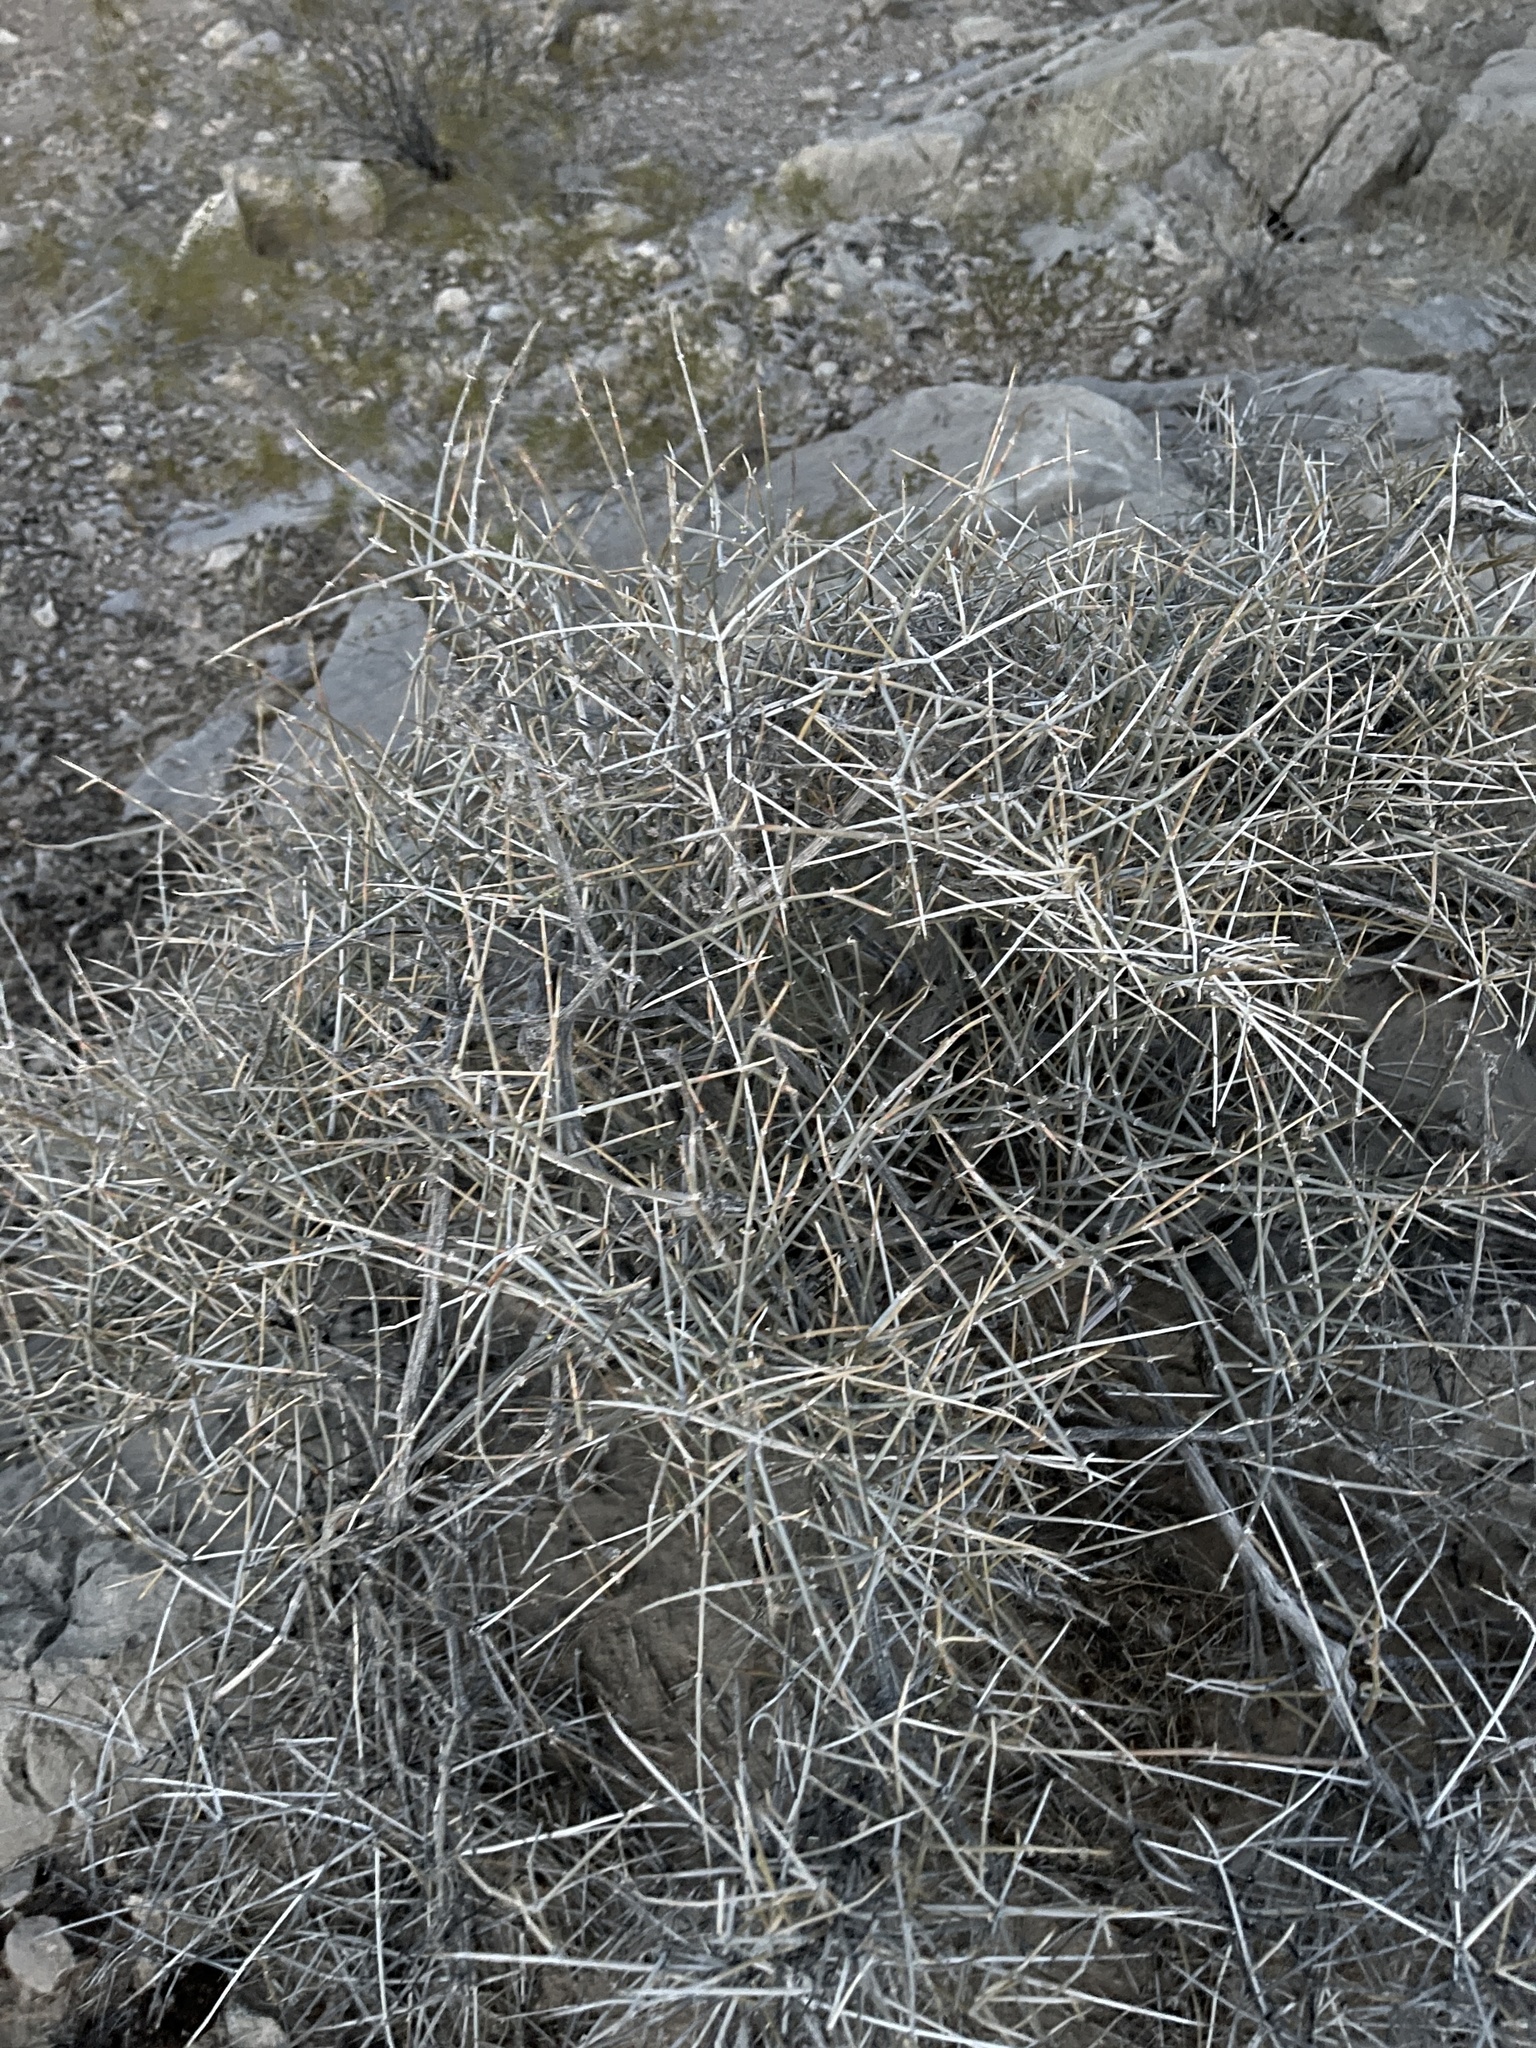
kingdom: Plantae
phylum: Tracheophyta
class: Gnetopsida
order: Ephedrales
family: Ephedraceae
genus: Ephedra
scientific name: Ephedra nevadensis
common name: Gray ephedra
